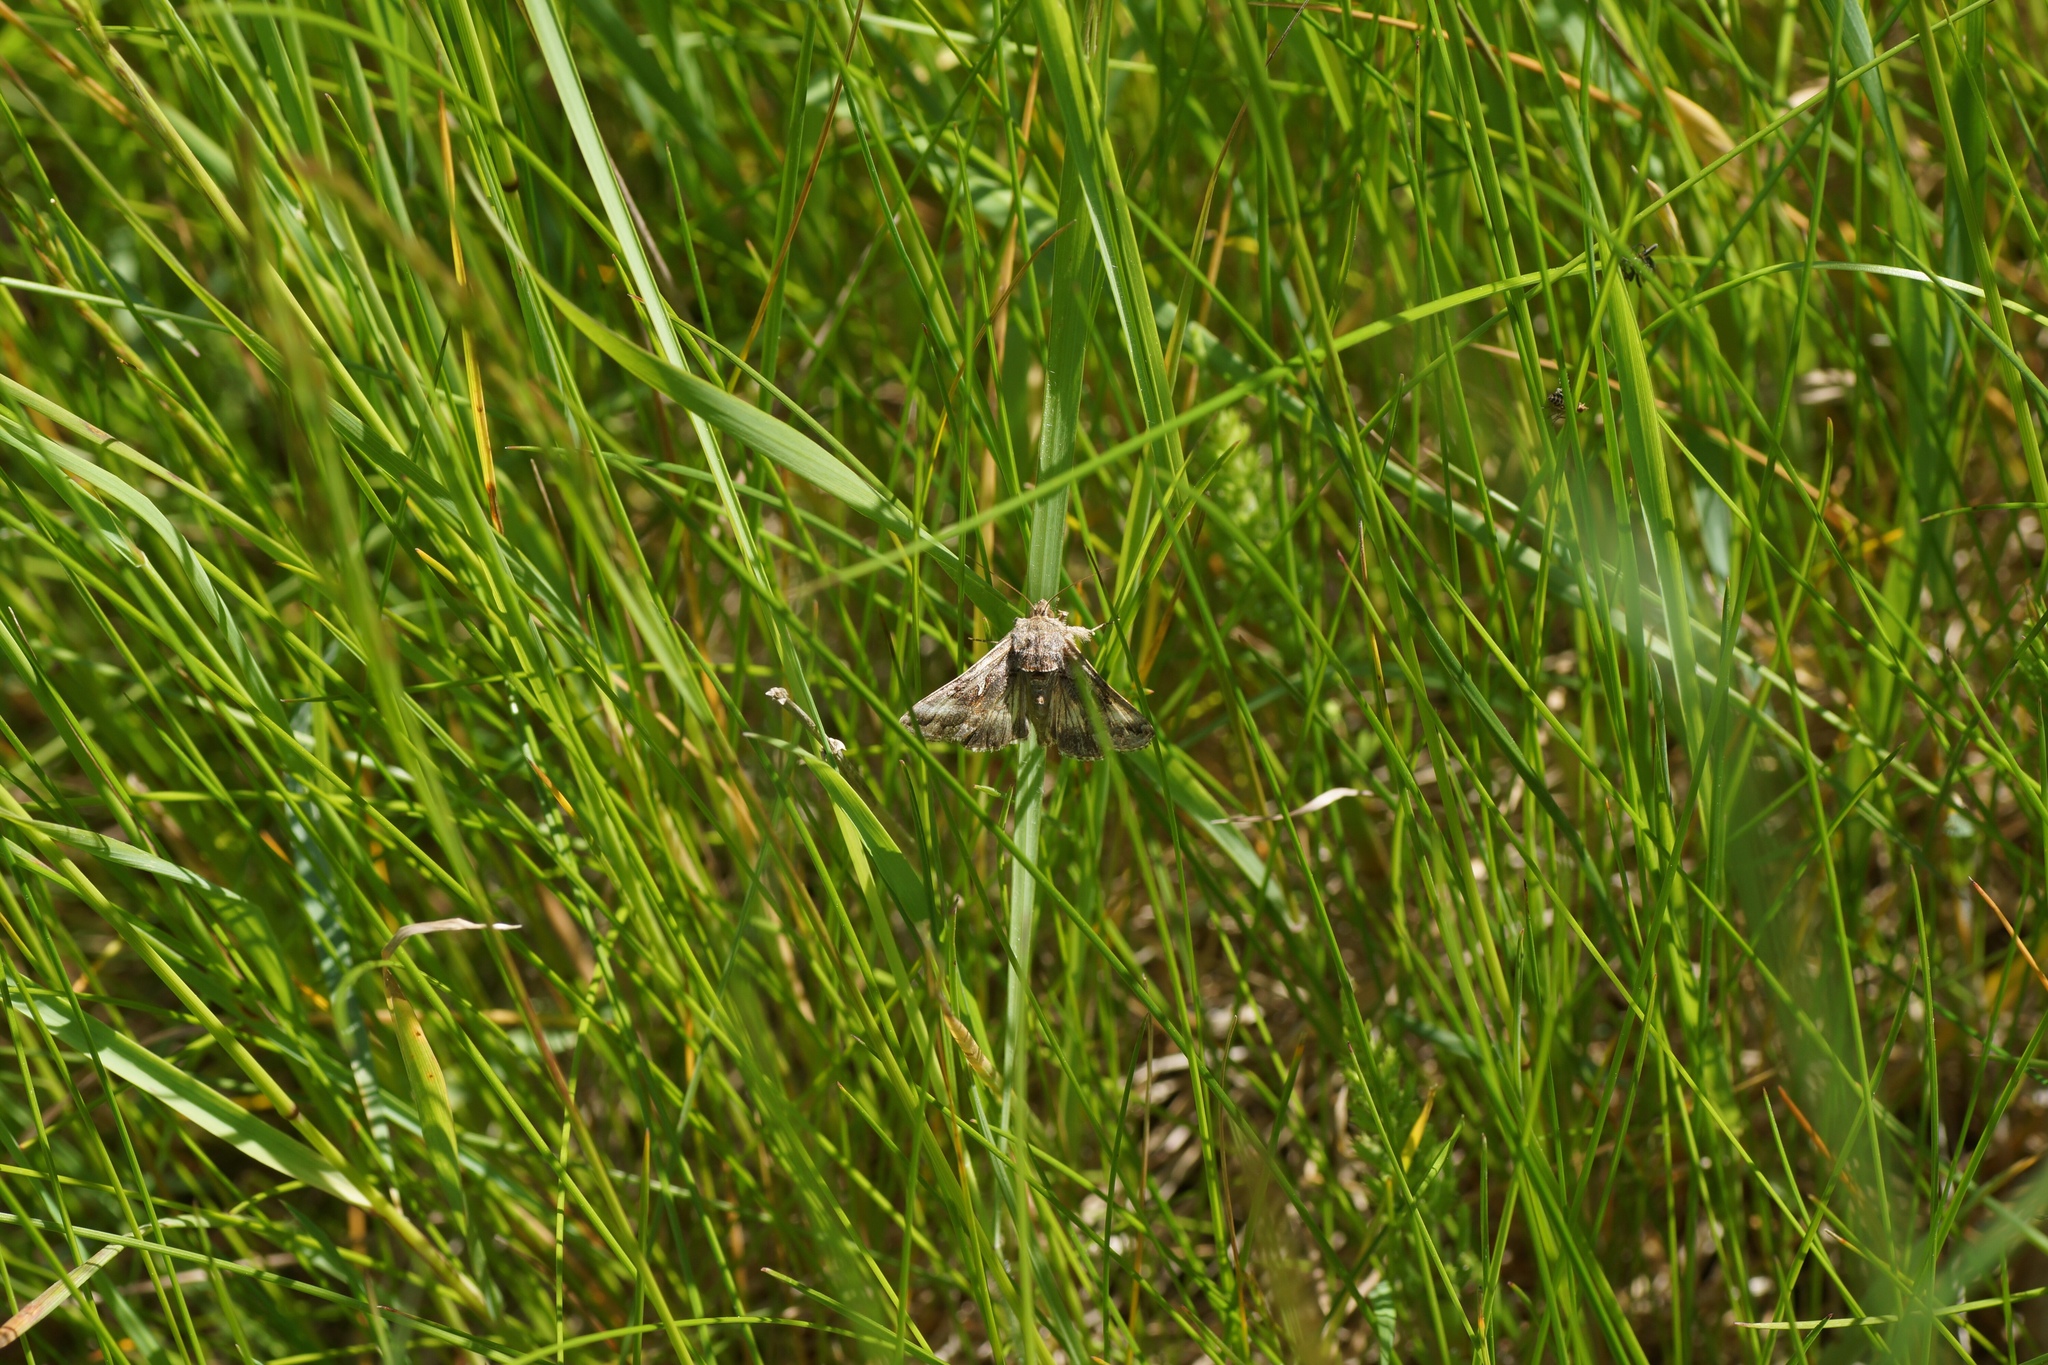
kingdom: Animalia
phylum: Arthropoda
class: Insecta
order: Lepidoptera
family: Noctuidae
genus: Autographa
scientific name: Autographa gamma
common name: Silver y
